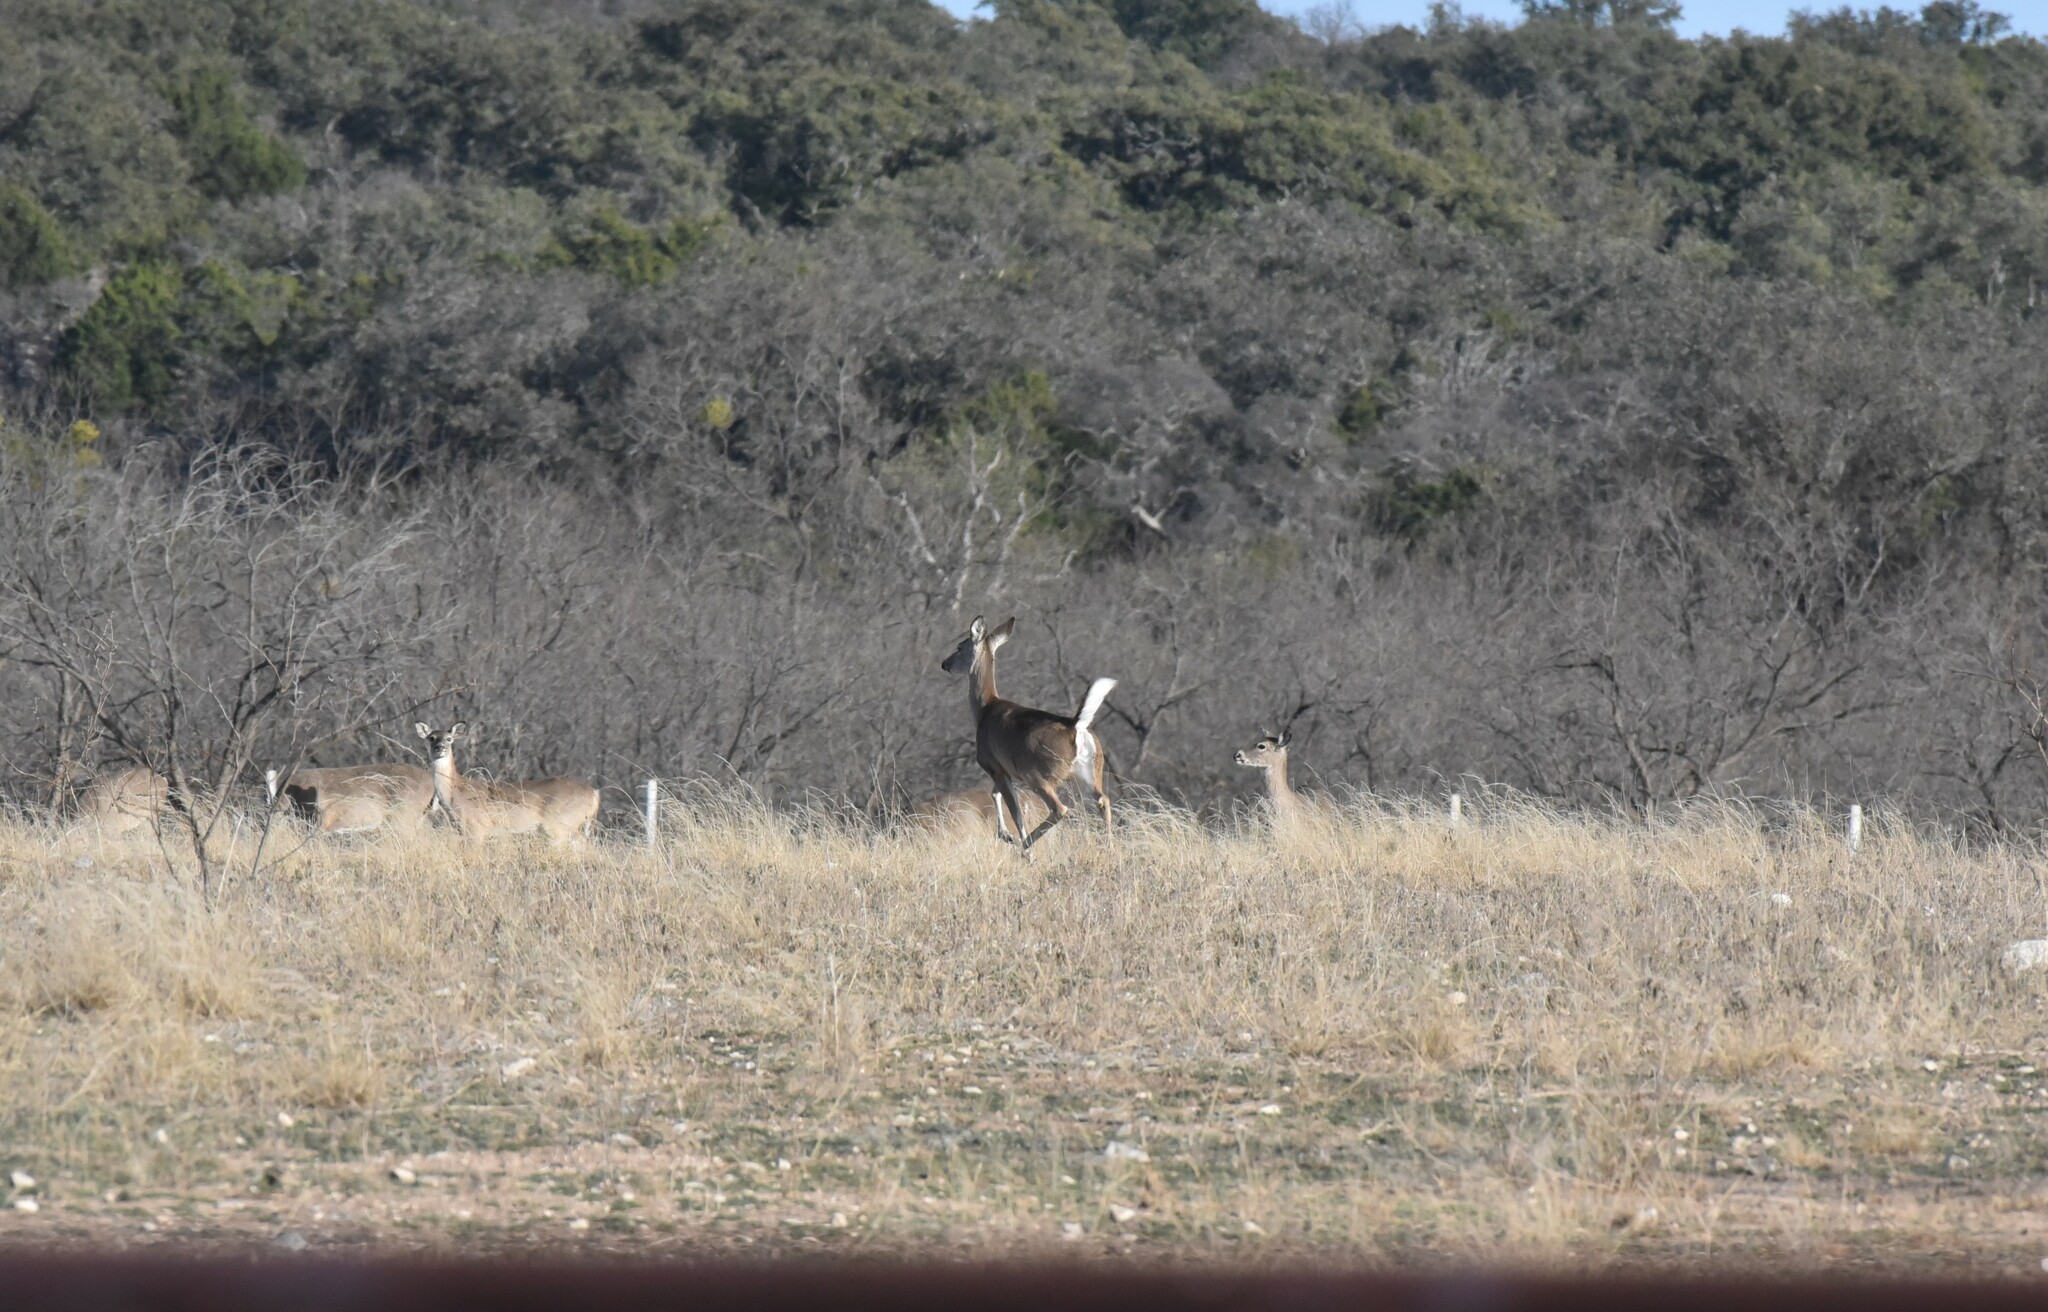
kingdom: Animalia
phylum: Chordata
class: Mammalia
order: Artiodactyla
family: Cervidae
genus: Odocoileus
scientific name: Odocoileus virginianus
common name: White-tailed deer
